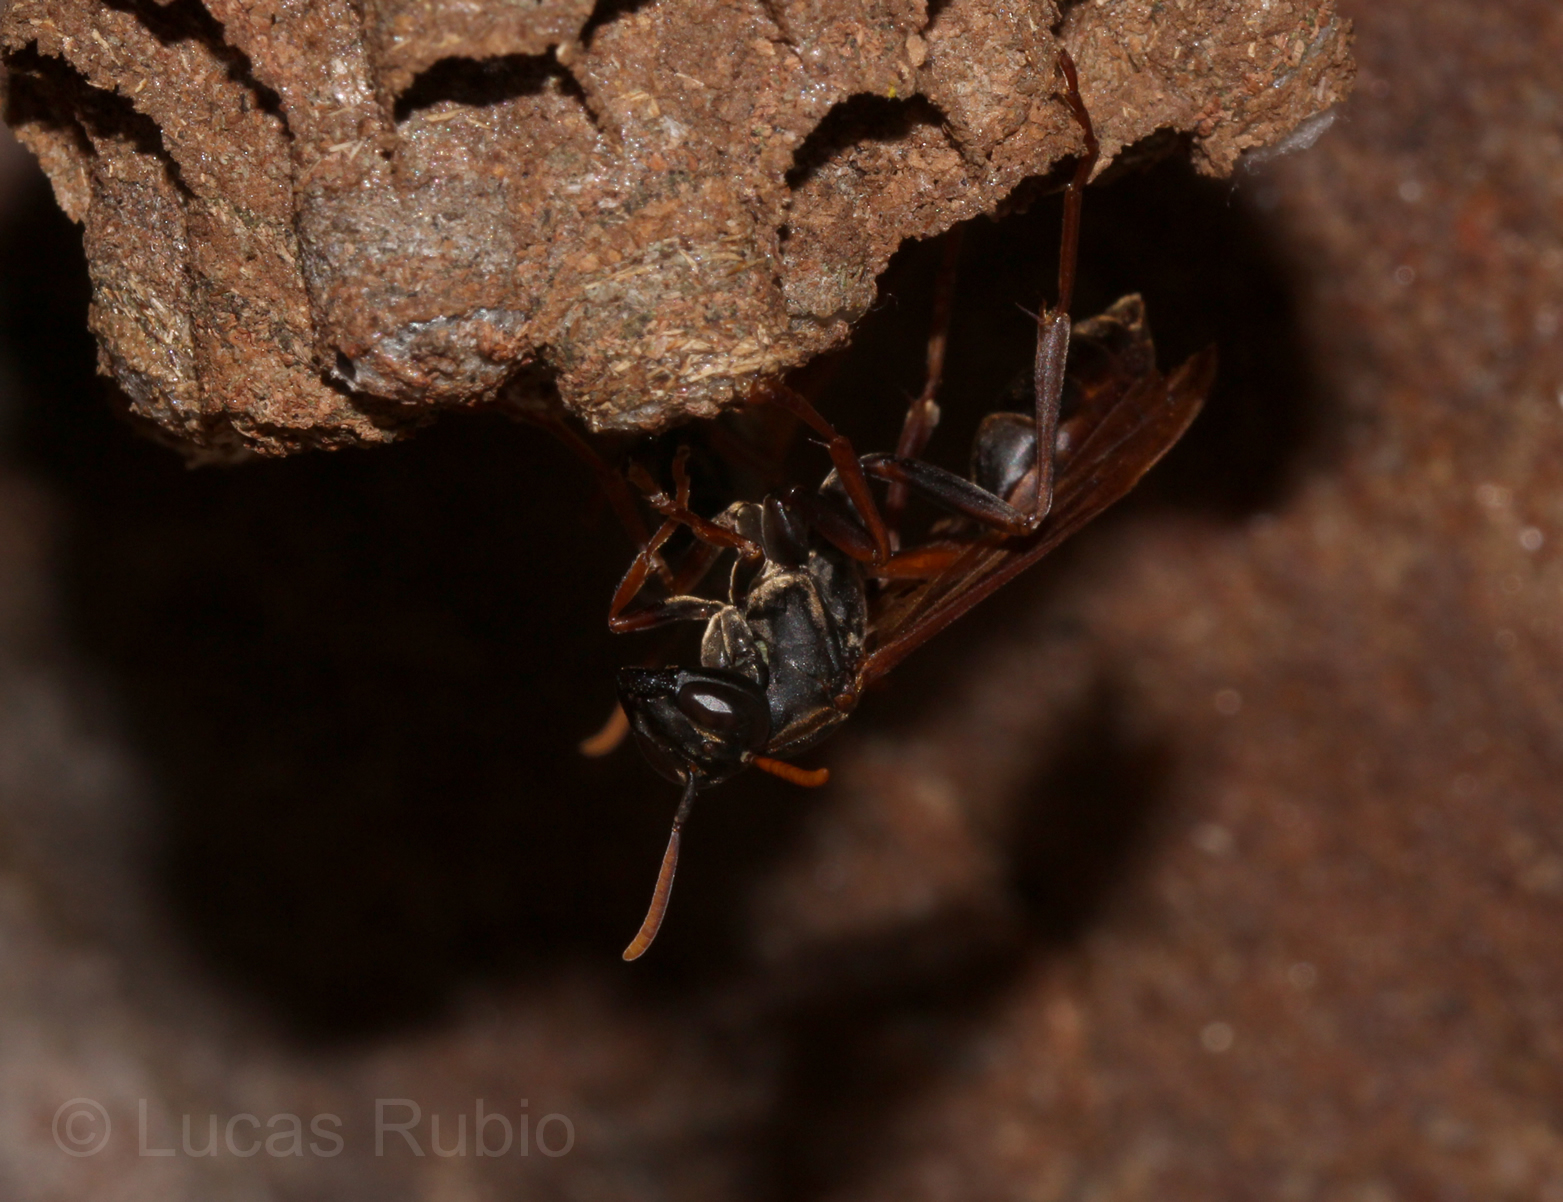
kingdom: Animalia
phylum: Arthropoda
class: Insecta
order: Hymenoptera
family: Vespidae
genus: Mischocyttarus
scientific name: Mischocyttarus drewseni
